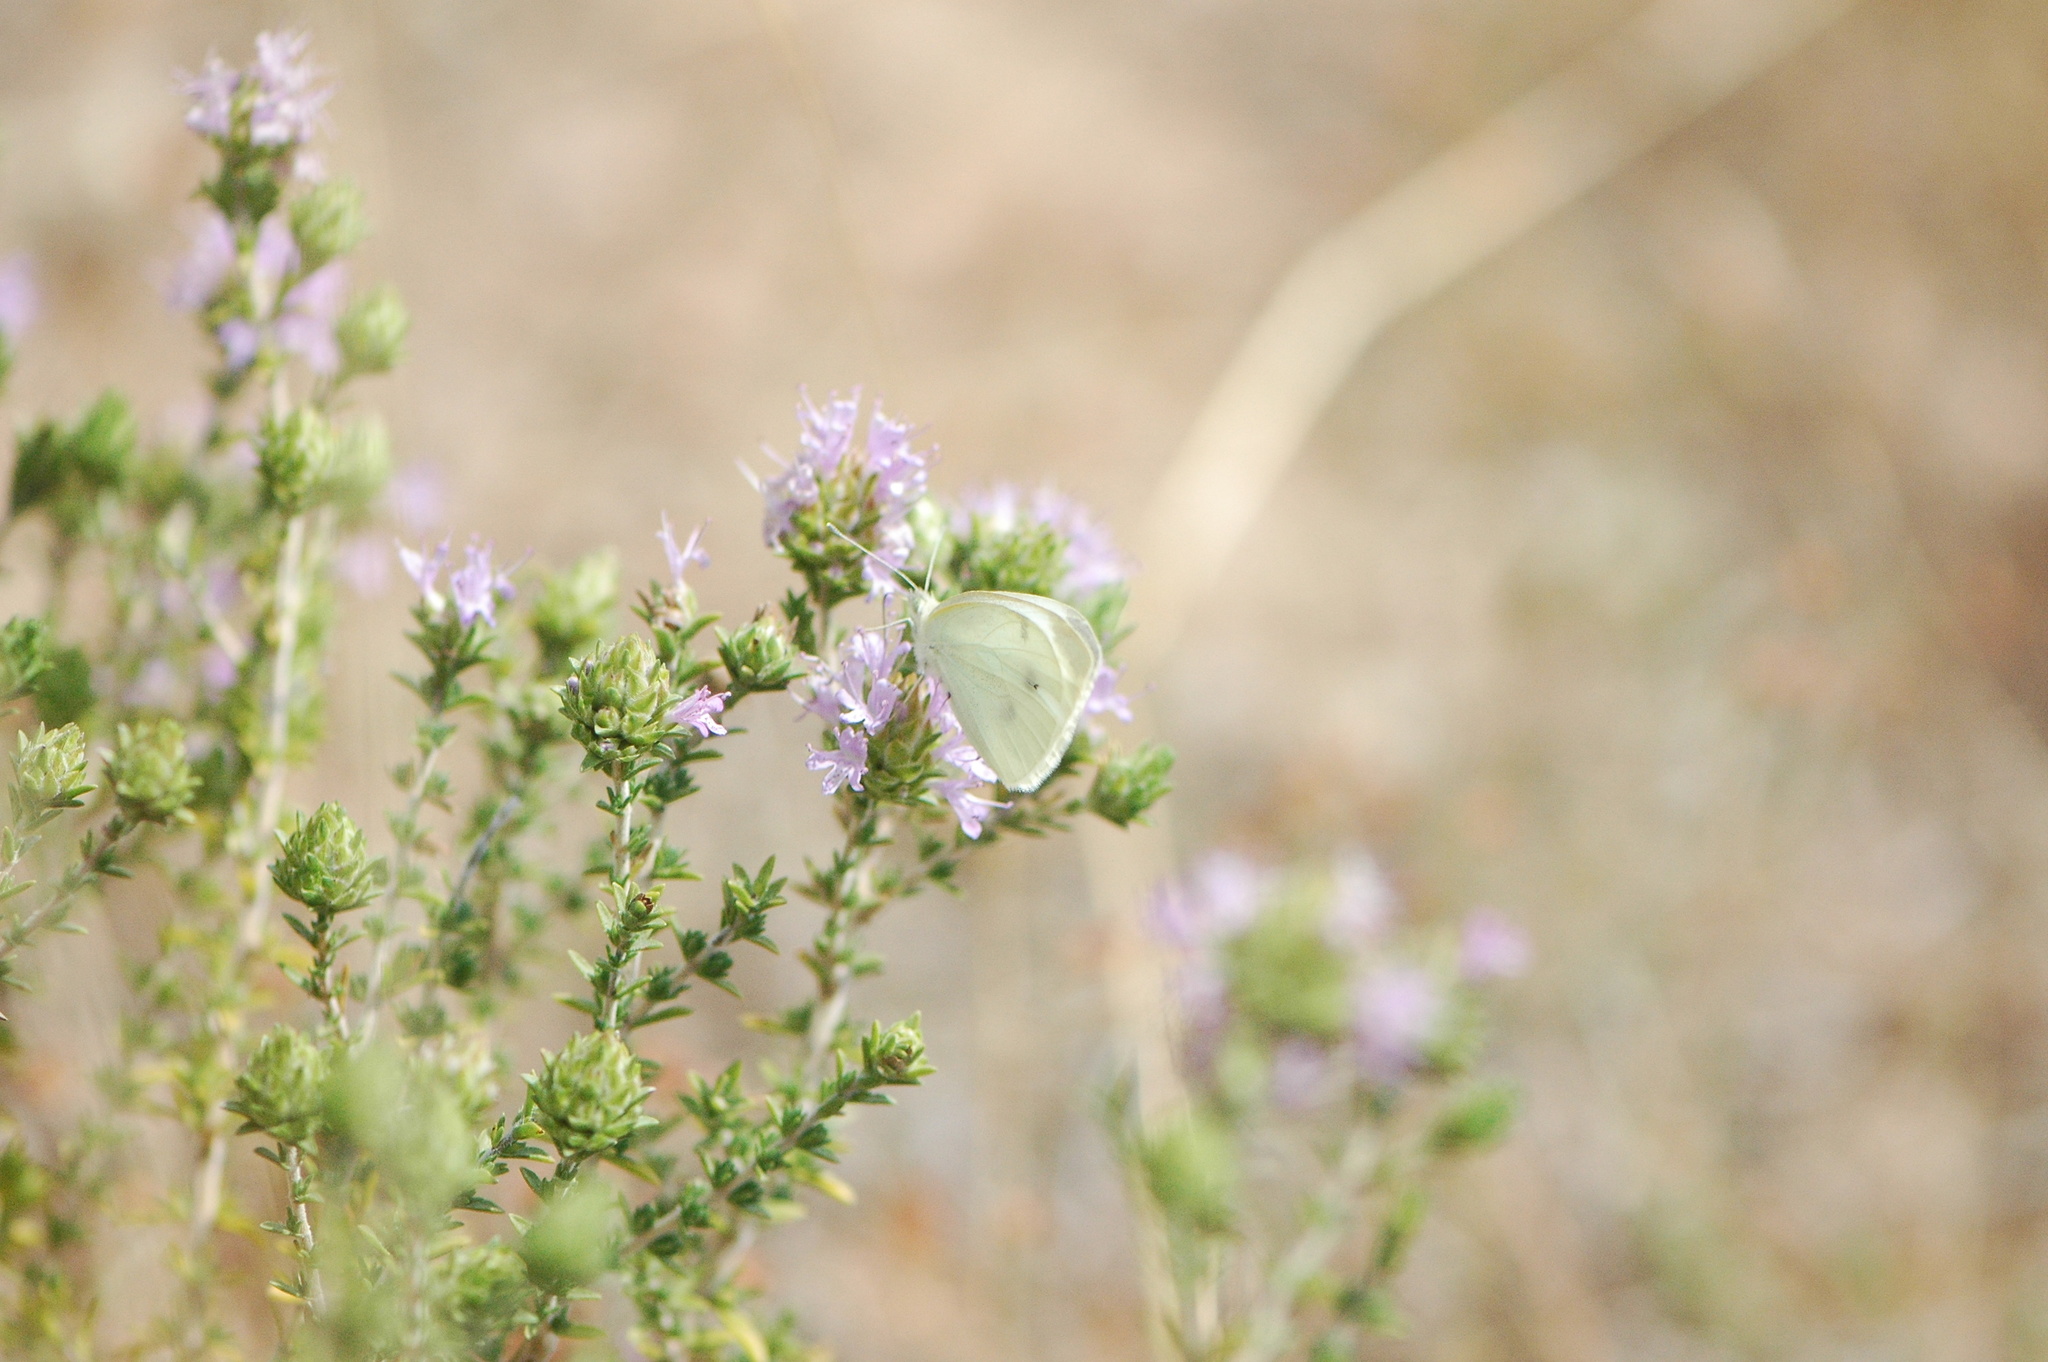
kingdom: Animalia
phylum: Arthropoda
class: Insecta
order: Lepidoptera
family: Pieridae
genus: Pieris
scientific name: Pieris rapae
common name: Small white
